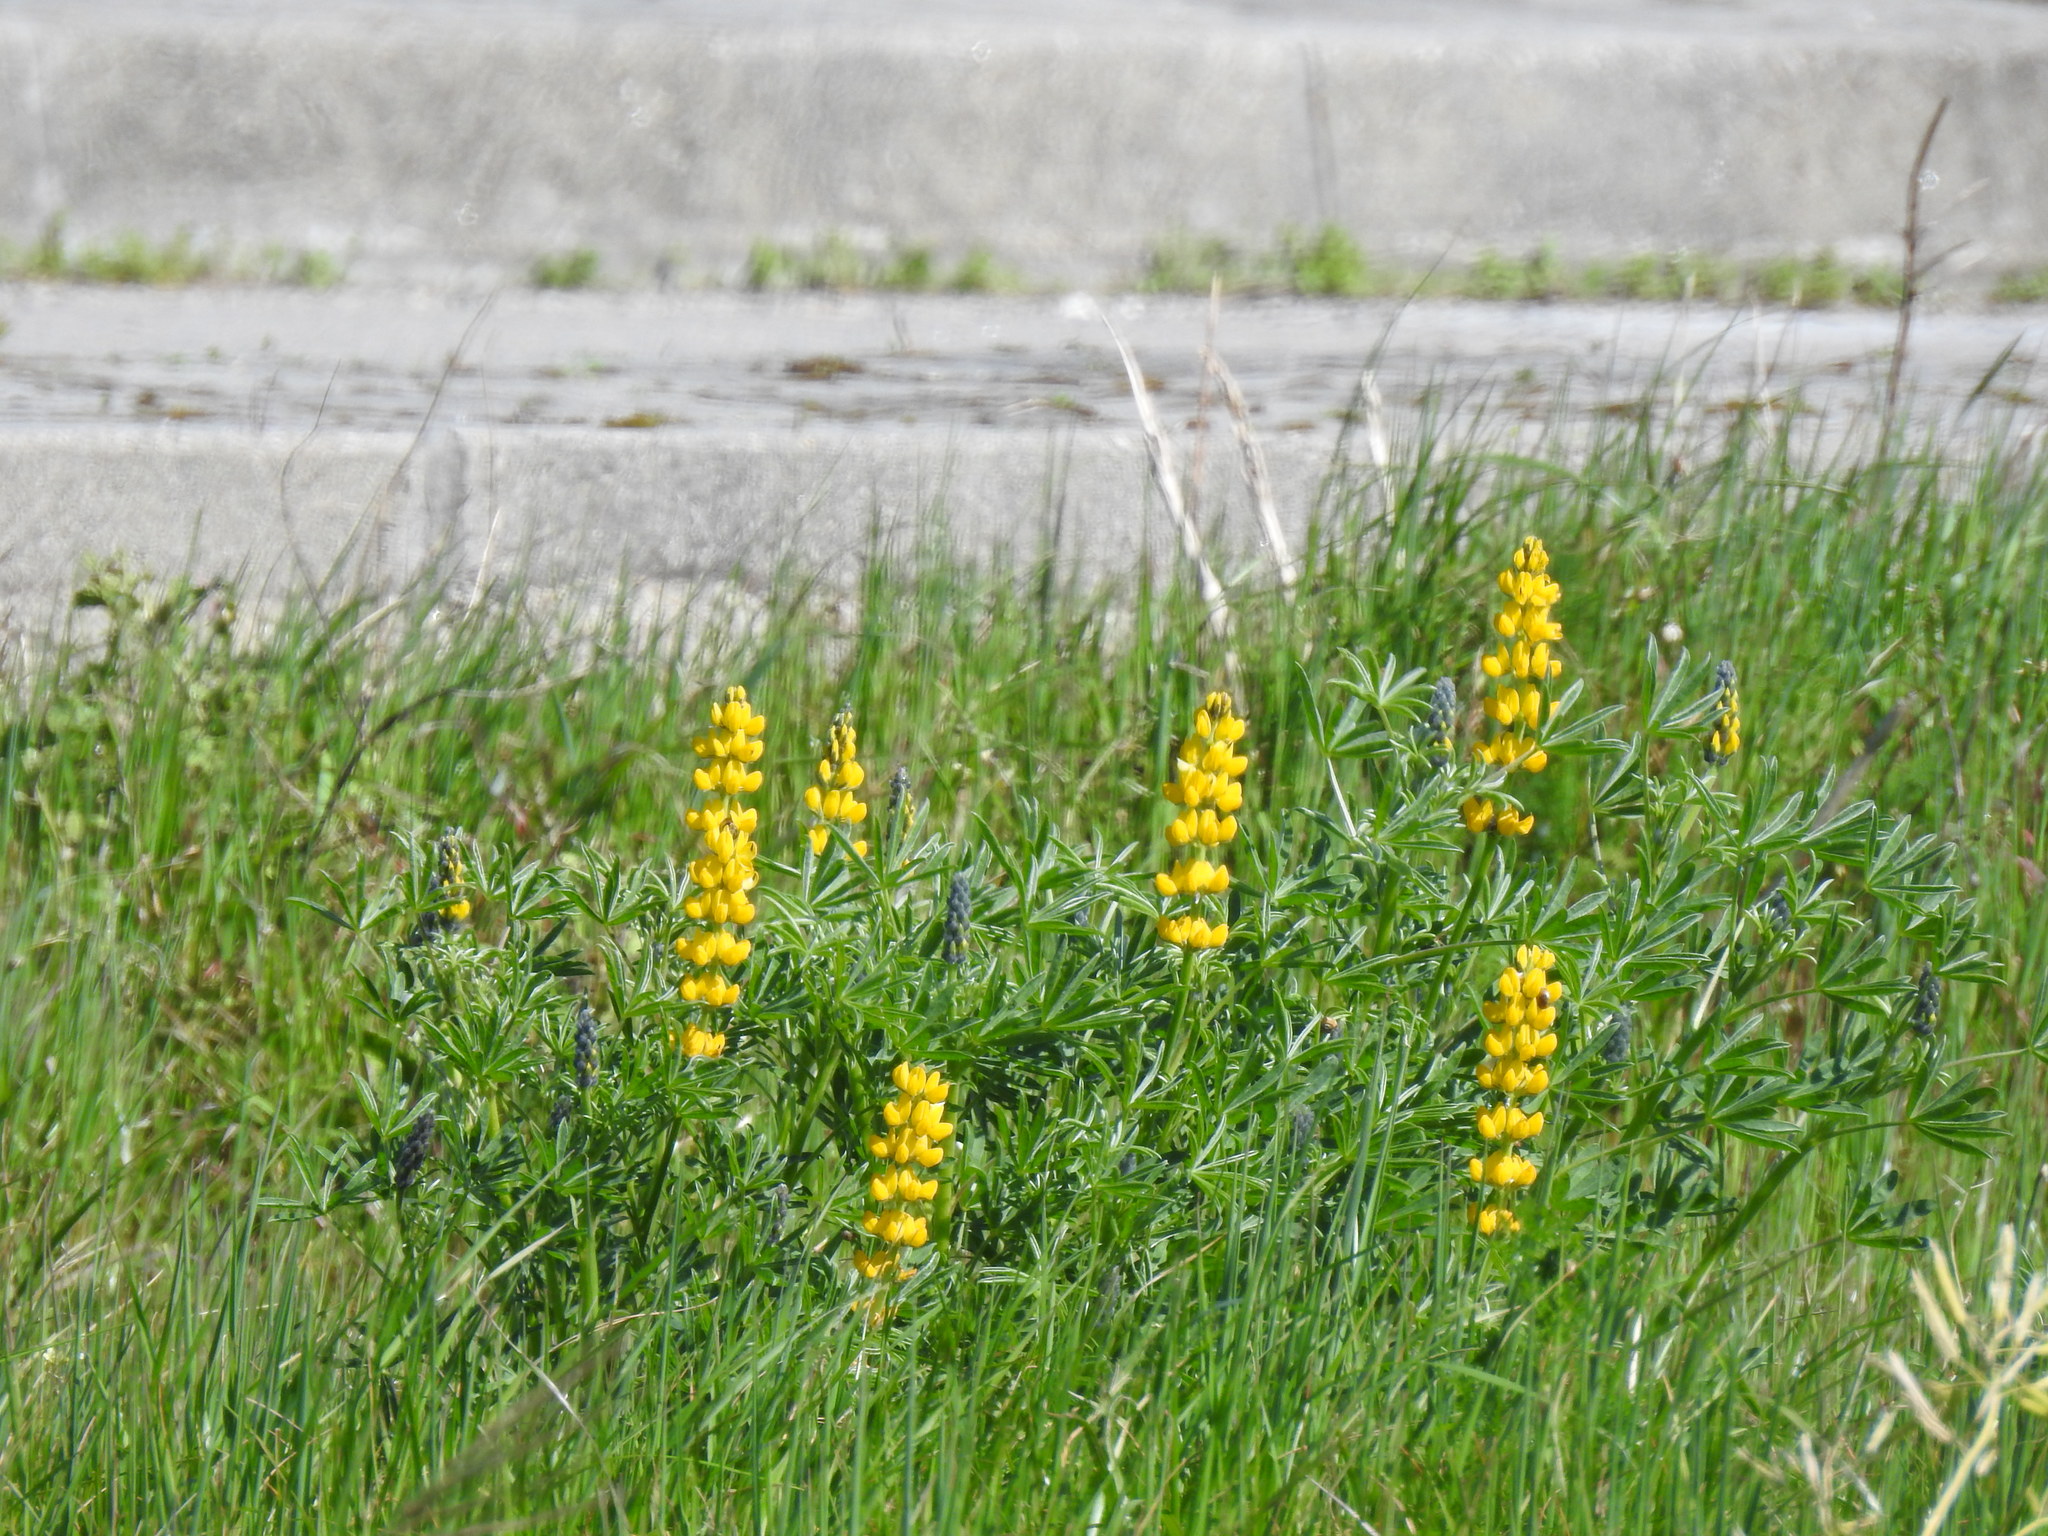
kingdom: Plantae
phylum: Tracheophyta
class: Magnoliopsida
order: Fabales
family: Fabaceae
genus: Lupinus
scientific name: Lupinus luteus
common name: European yellow lupine
